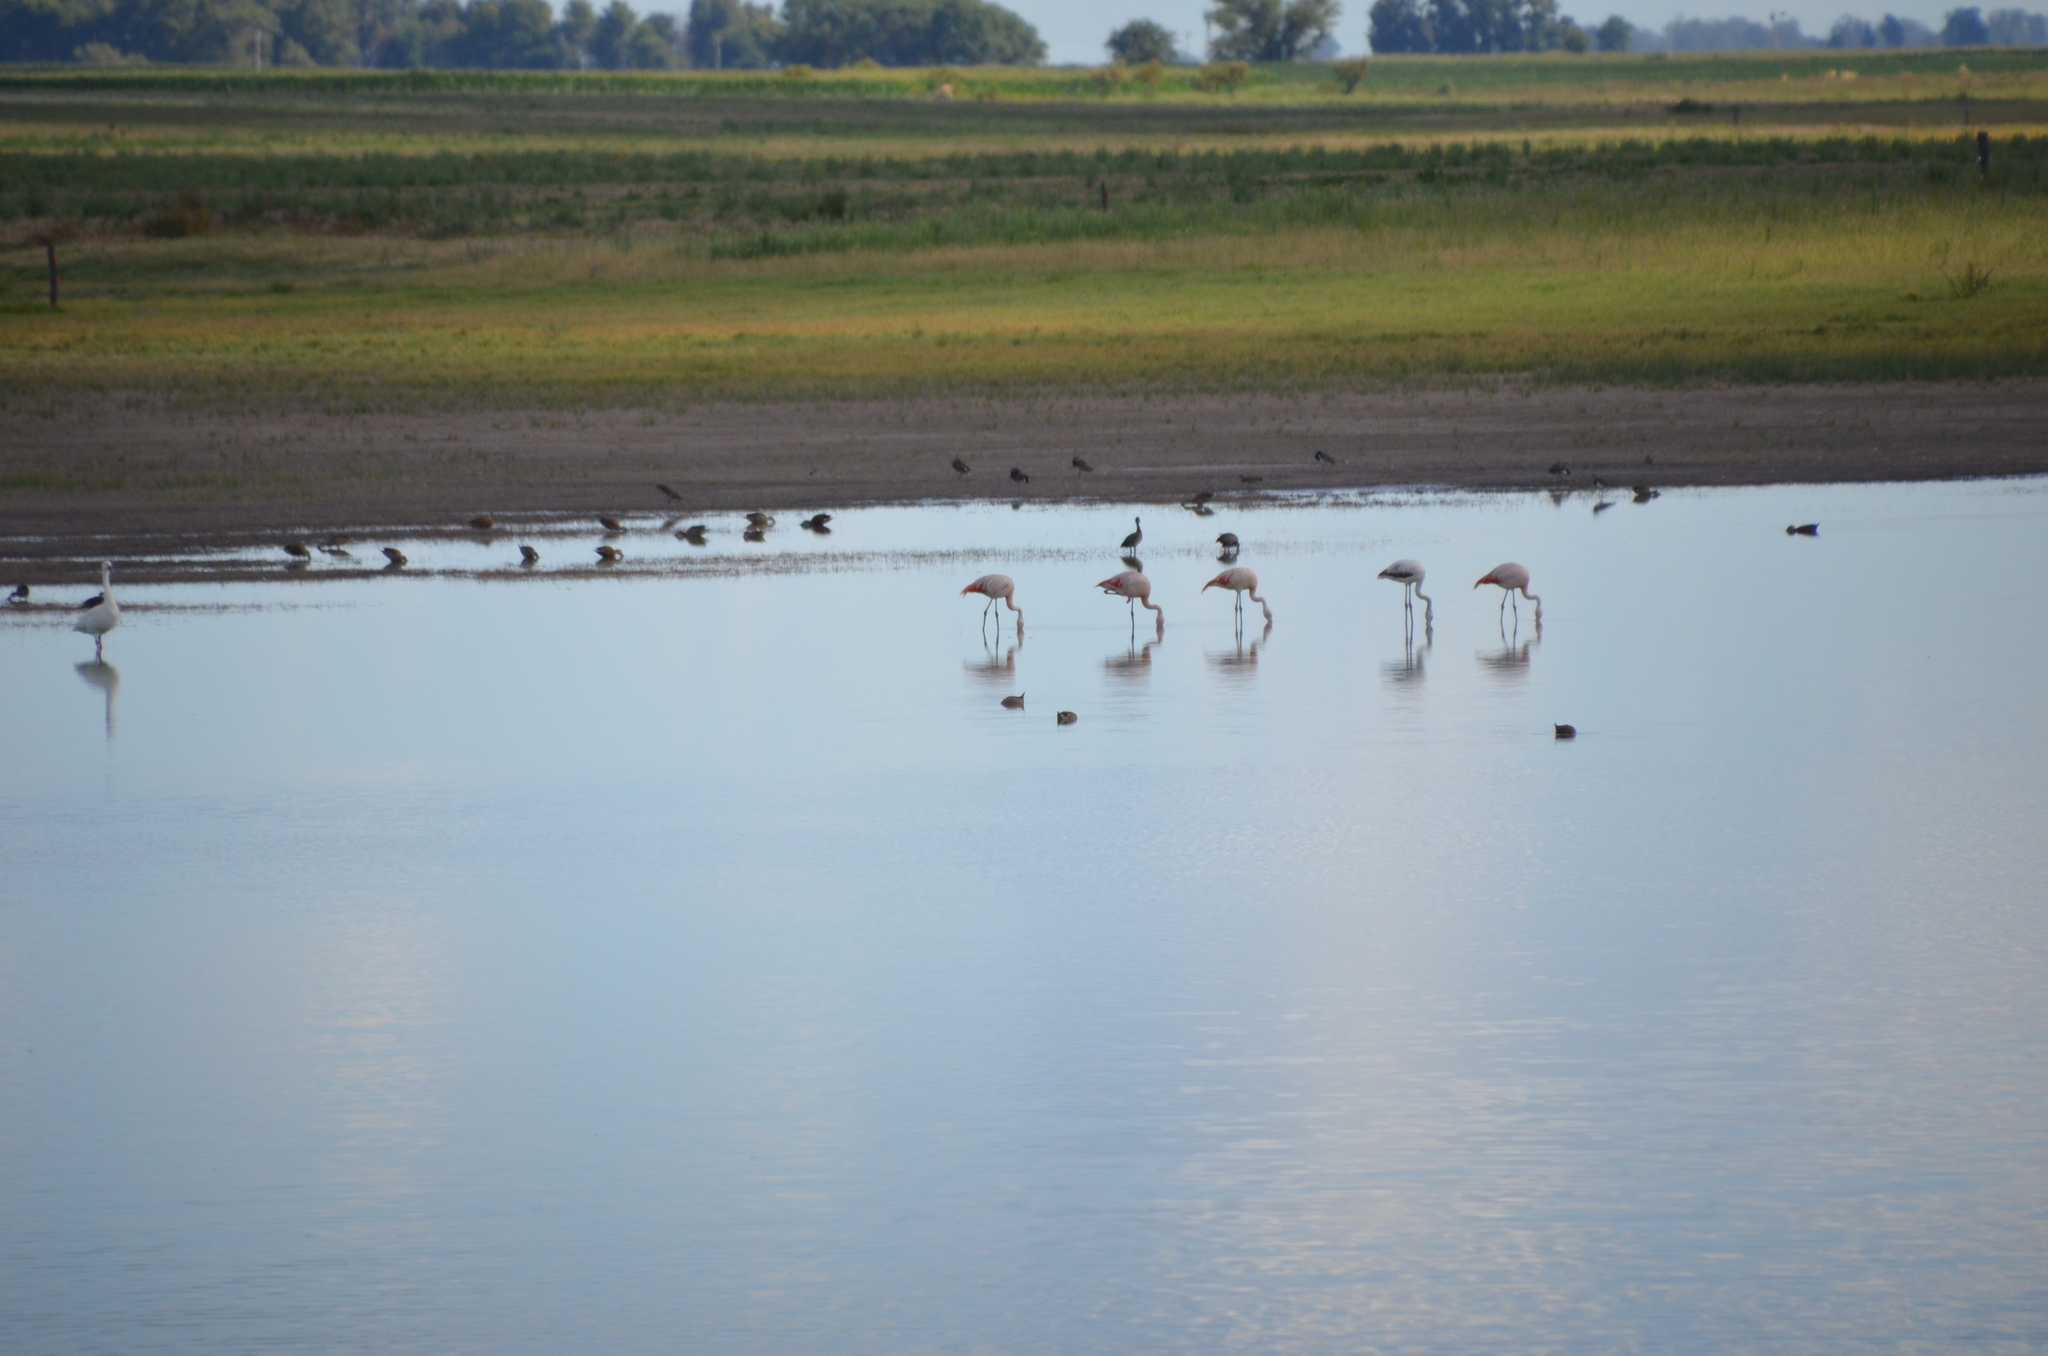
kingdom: Animalia
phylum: Chordata
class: Aves
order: Phoenicopteriformes
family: Phoenicopteridae
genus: Phoenicopterus
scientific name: Phoenicopterus chilensis
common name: Chilean flamingo
